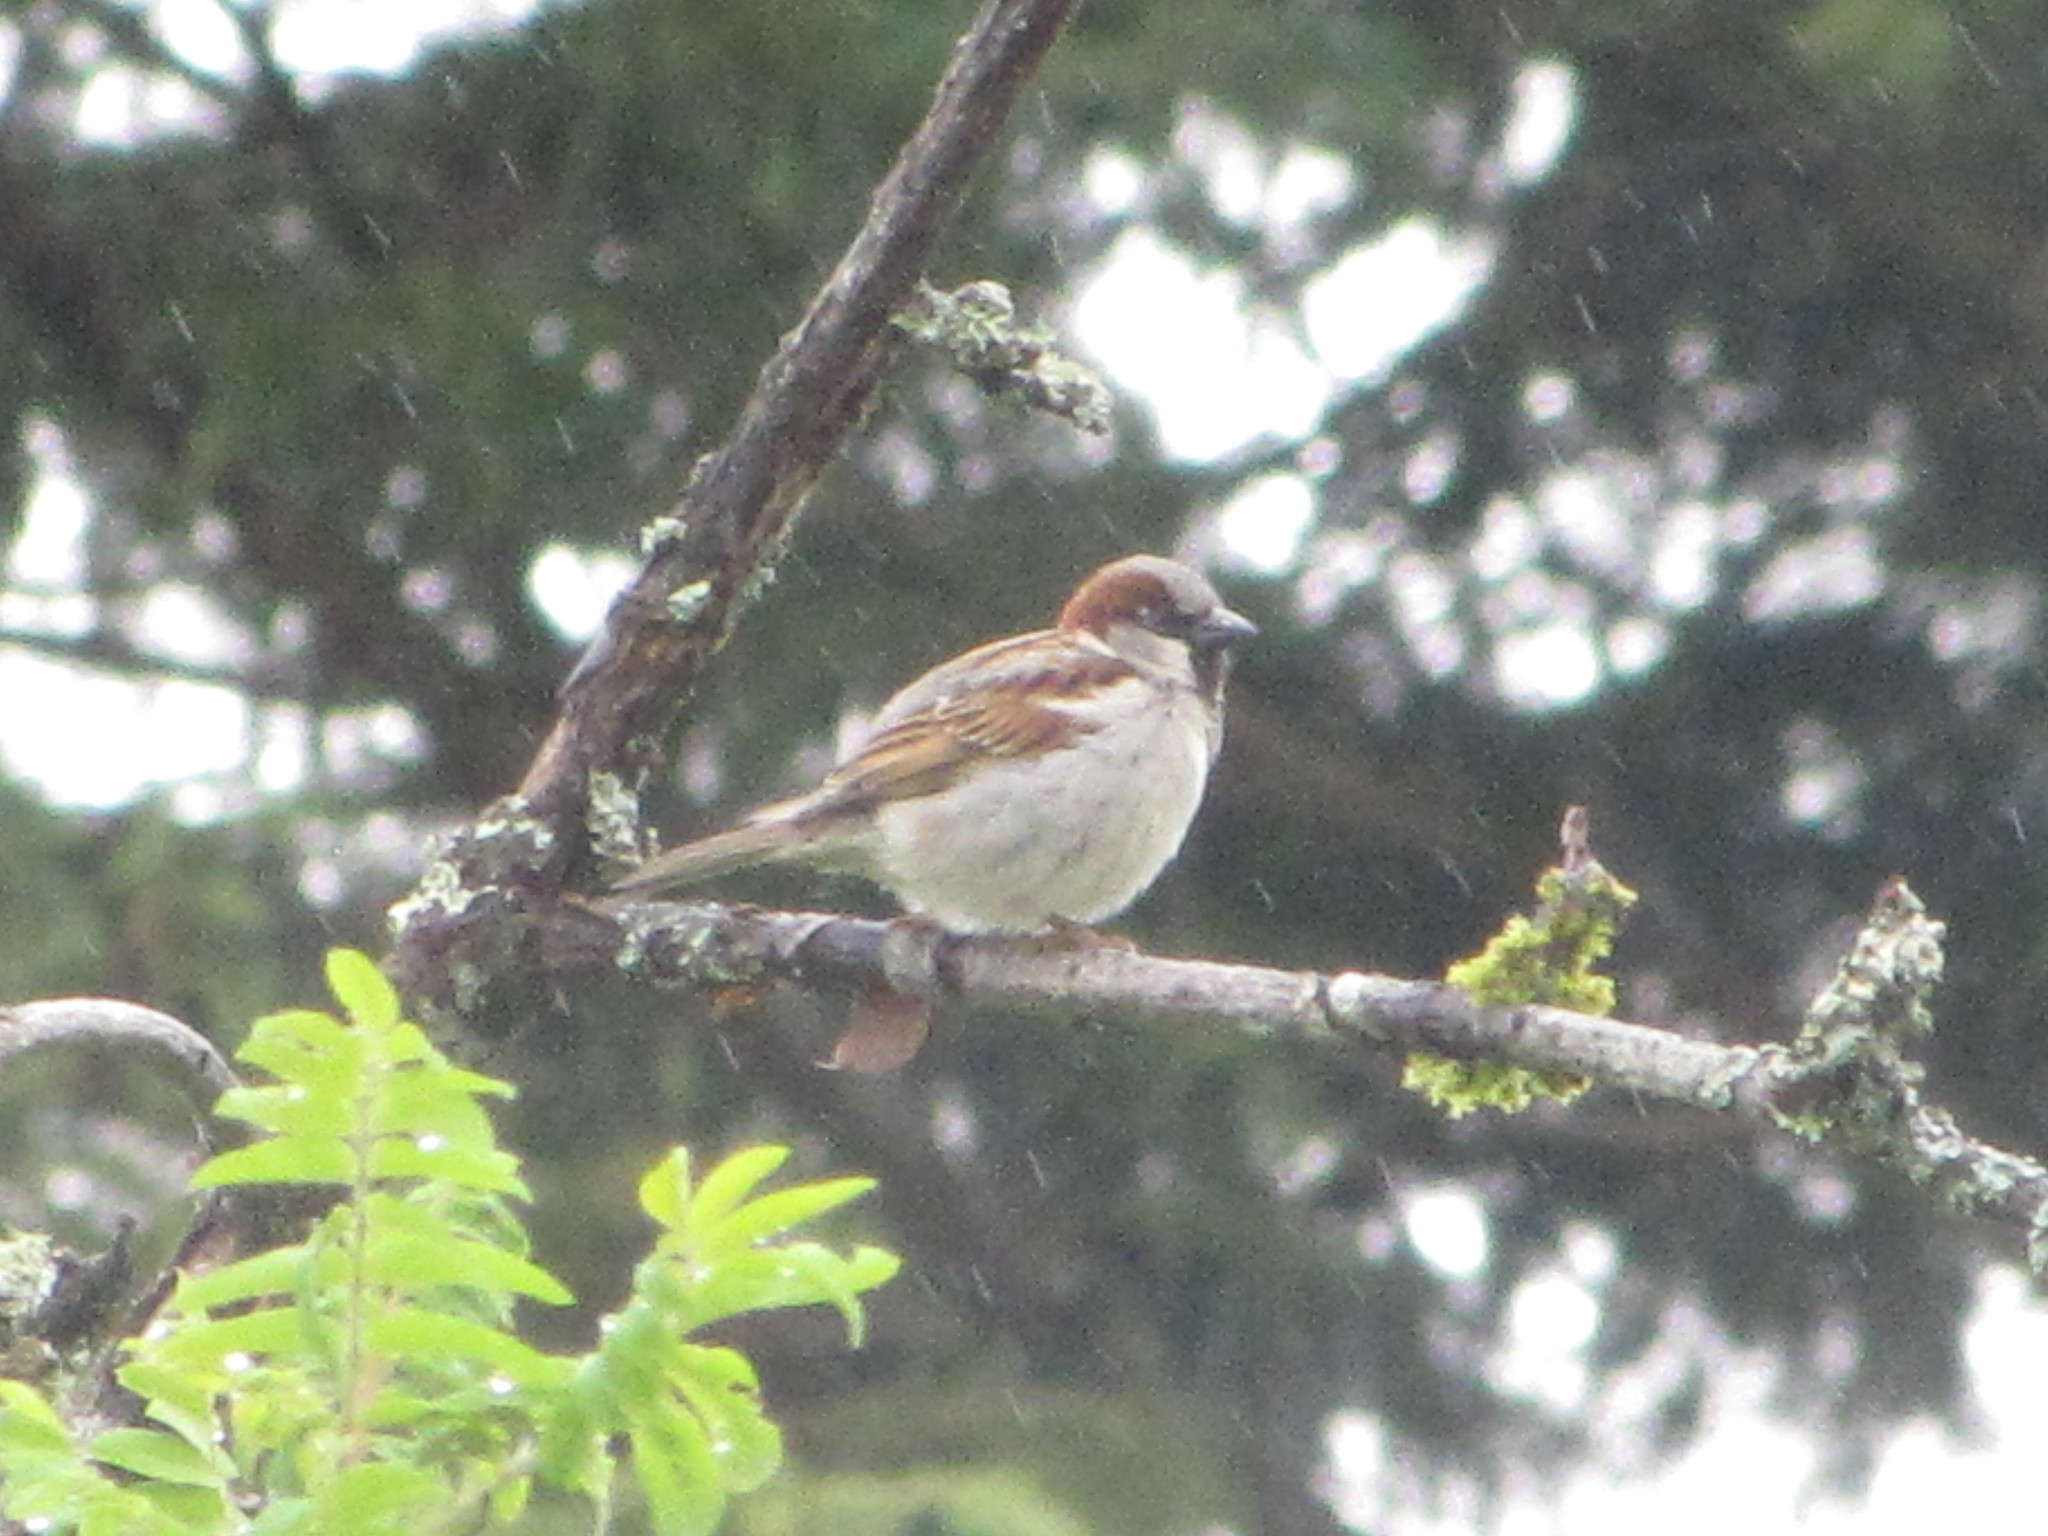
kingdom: Animalia
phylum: Chordata
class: Aves
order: Passeriformes
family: Passeridae
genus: Passer
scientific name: Passer domesticus
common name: House sparrow
